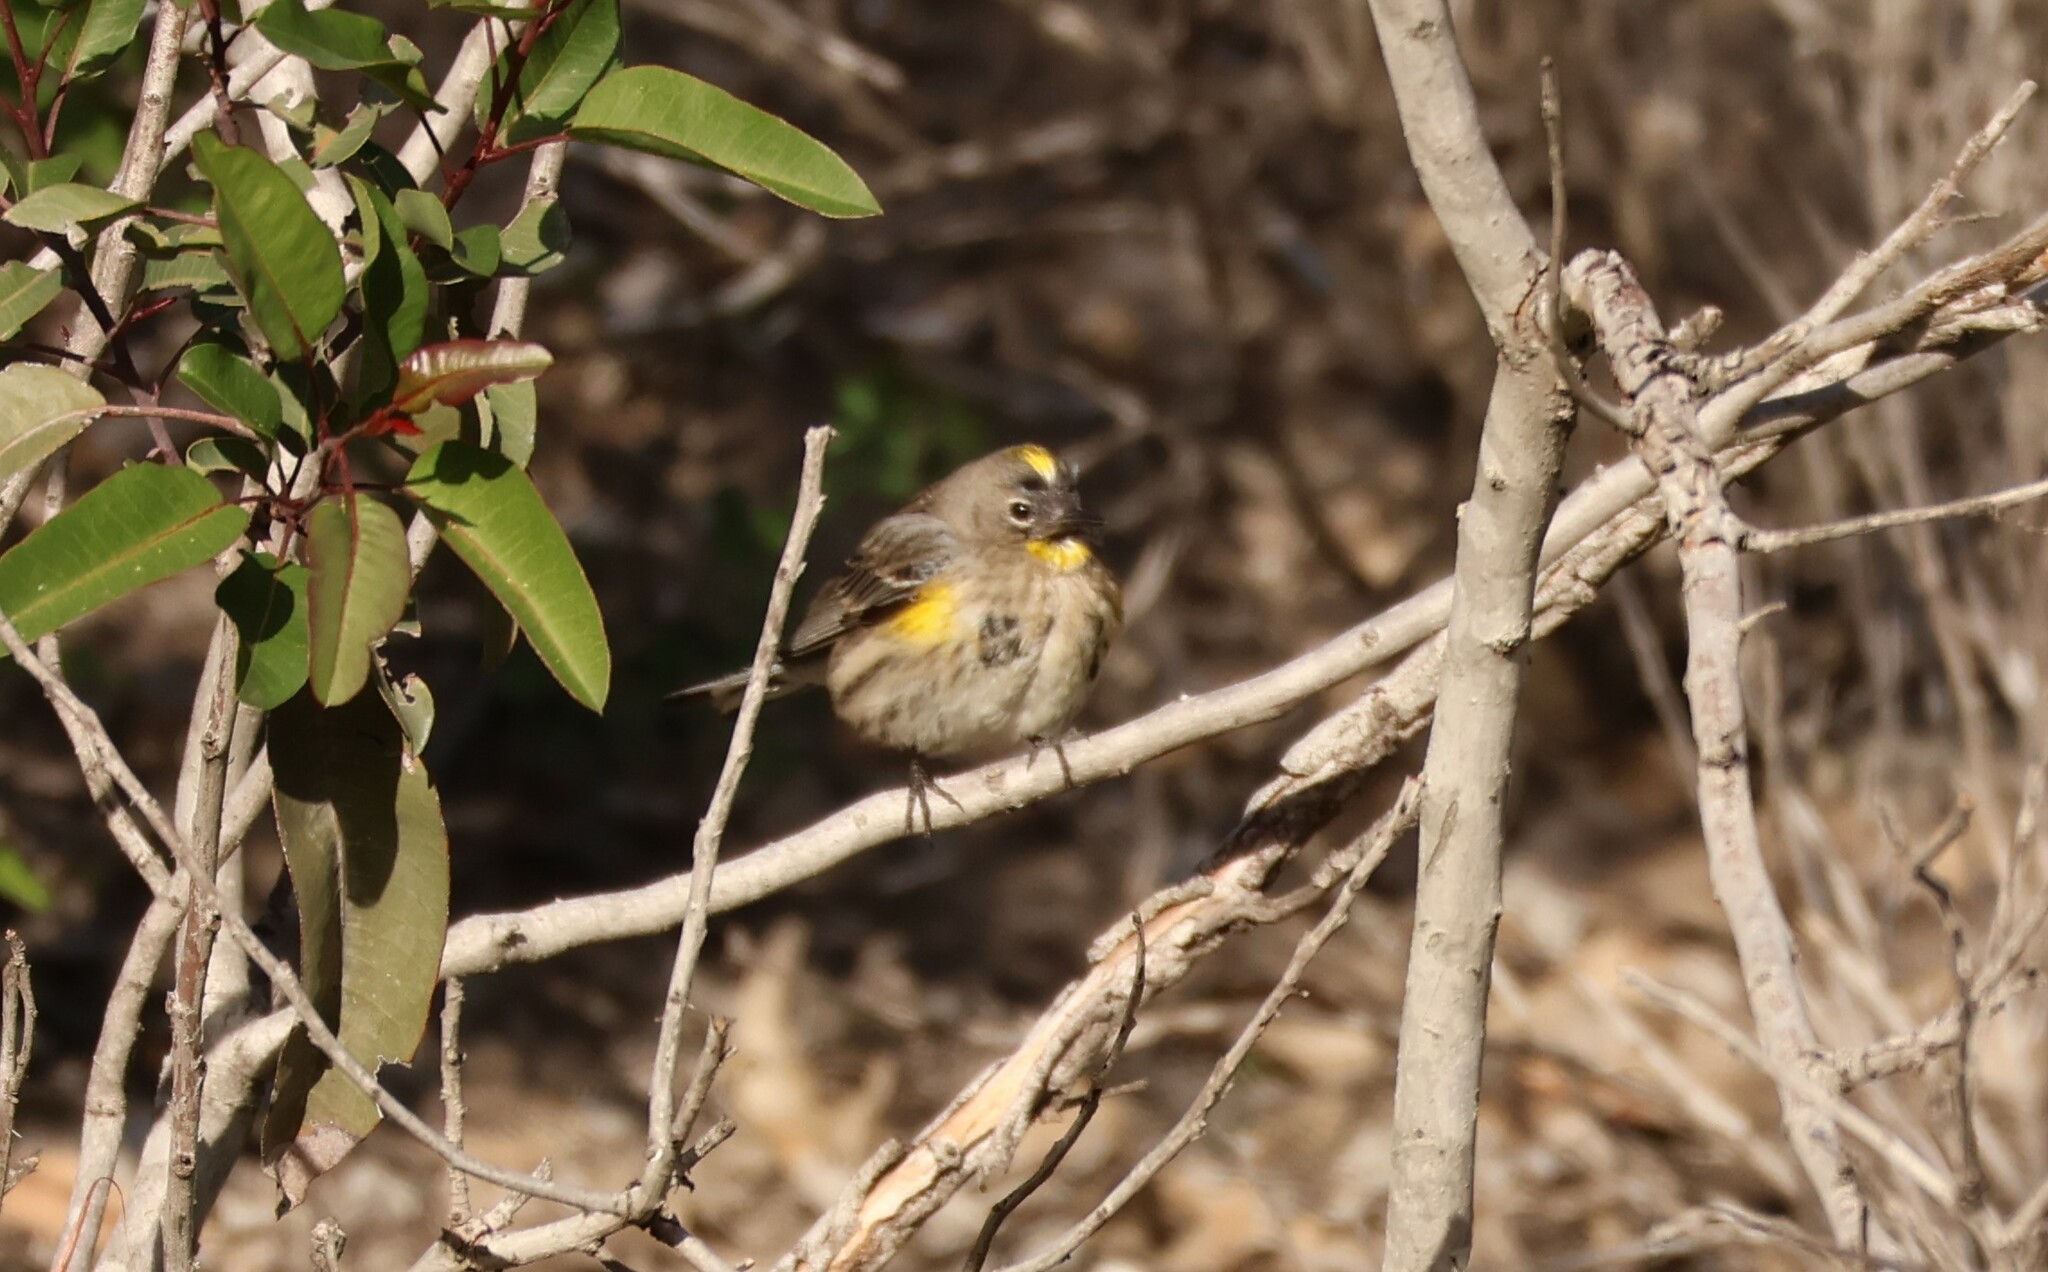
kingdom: Animalia
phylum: Chordata
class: Aves
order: Passeriformes
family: Parulidae
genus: Setophaga
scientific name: Setophaga auduboni
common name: Audubon's warbler
